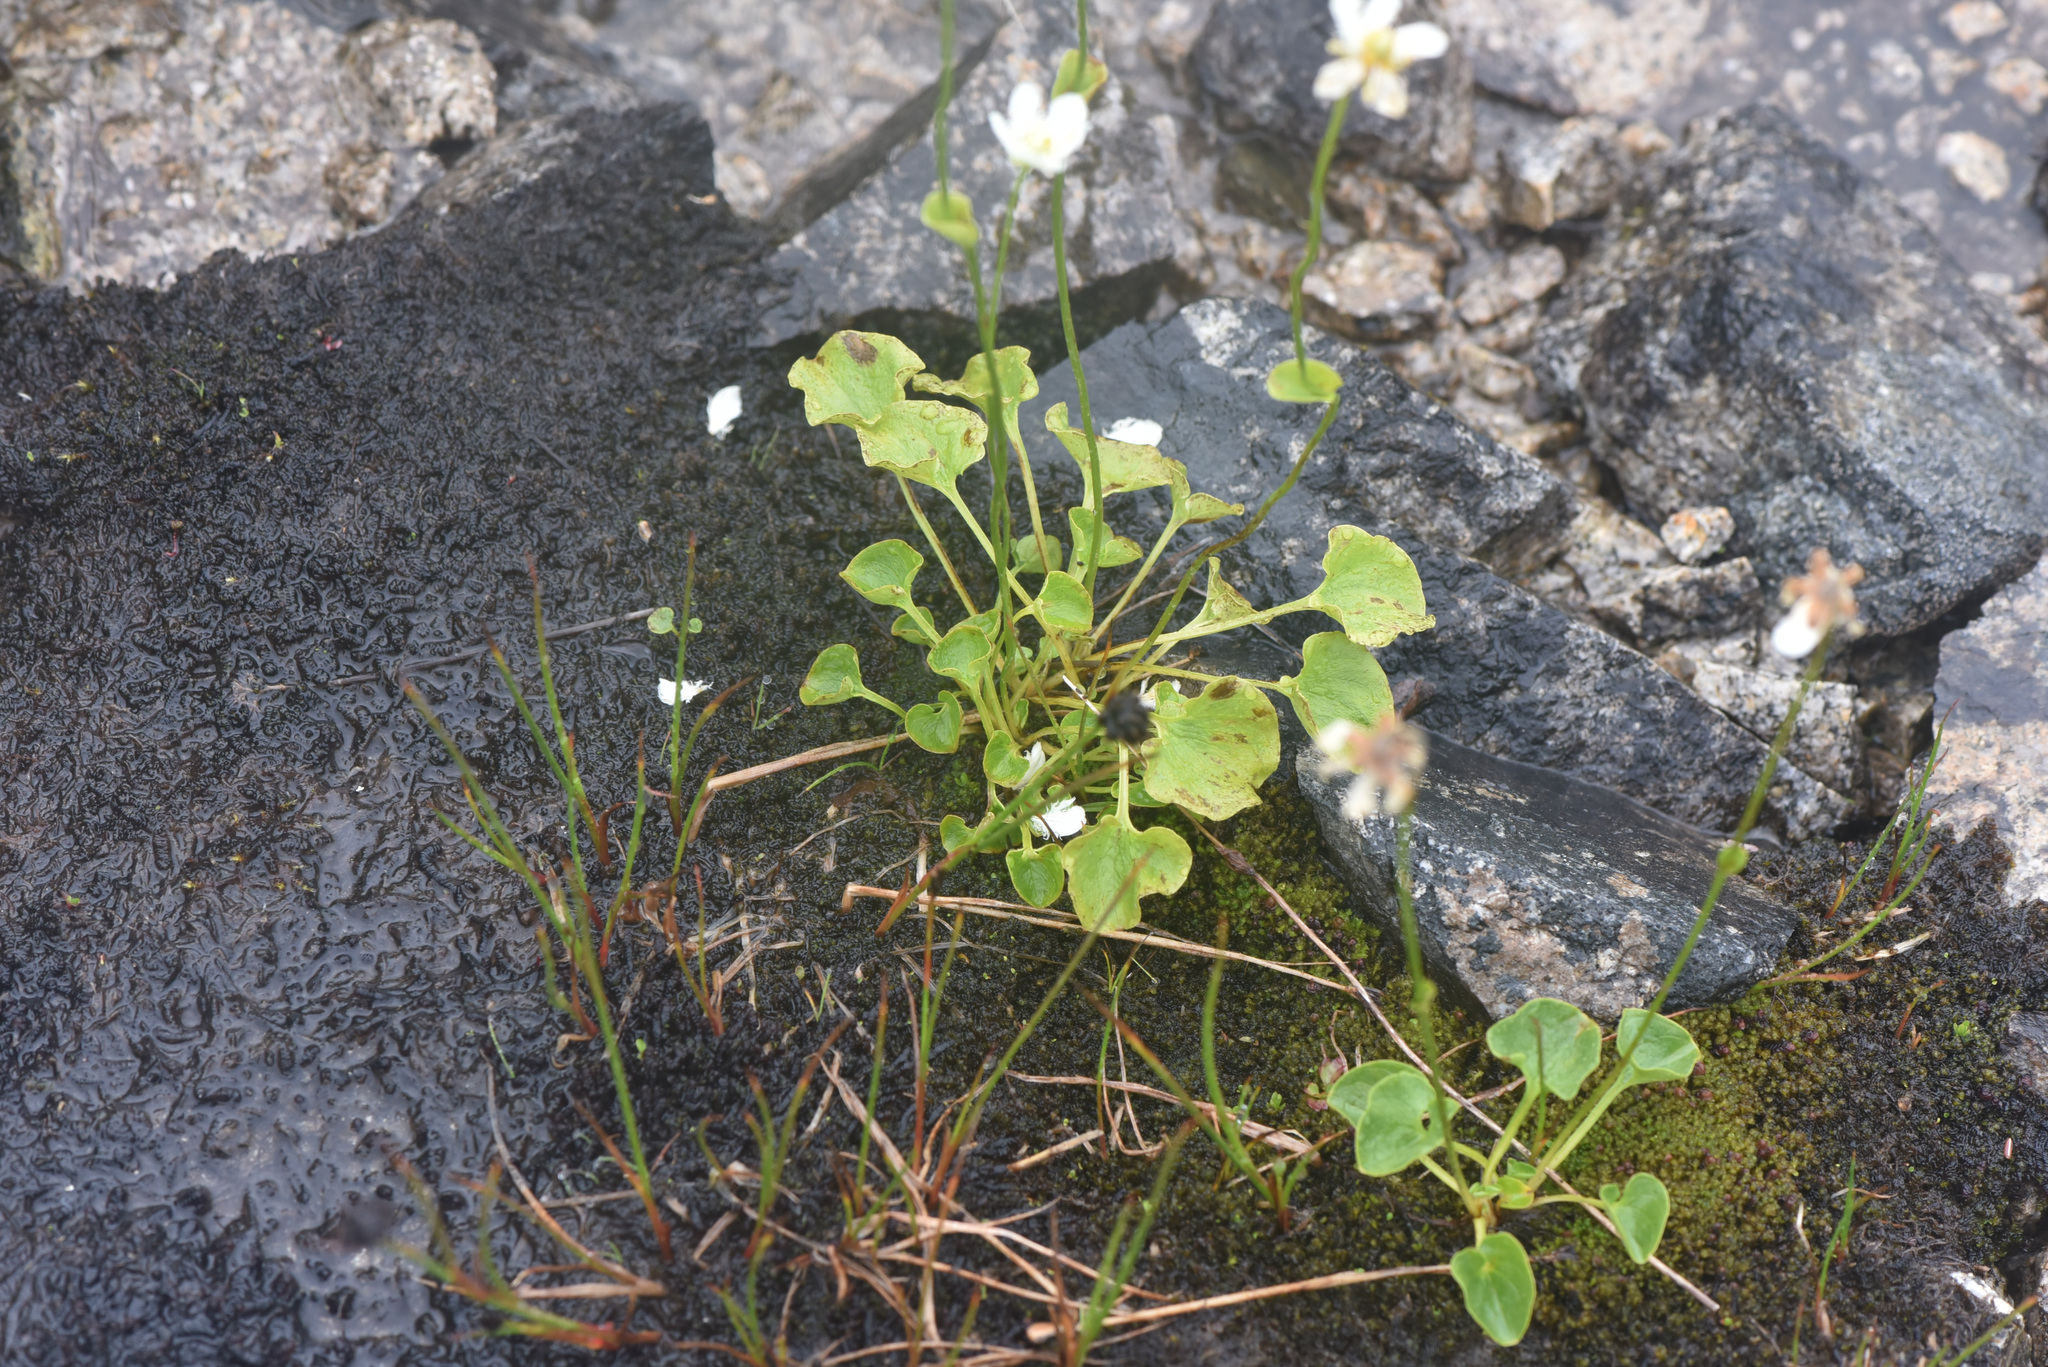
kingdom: Plantae
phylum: Tracheophyta
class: Magnoliopsida
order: Celastrales
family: Parnassiaceae
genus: Parnassia
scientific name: Parnassia fimbriata
